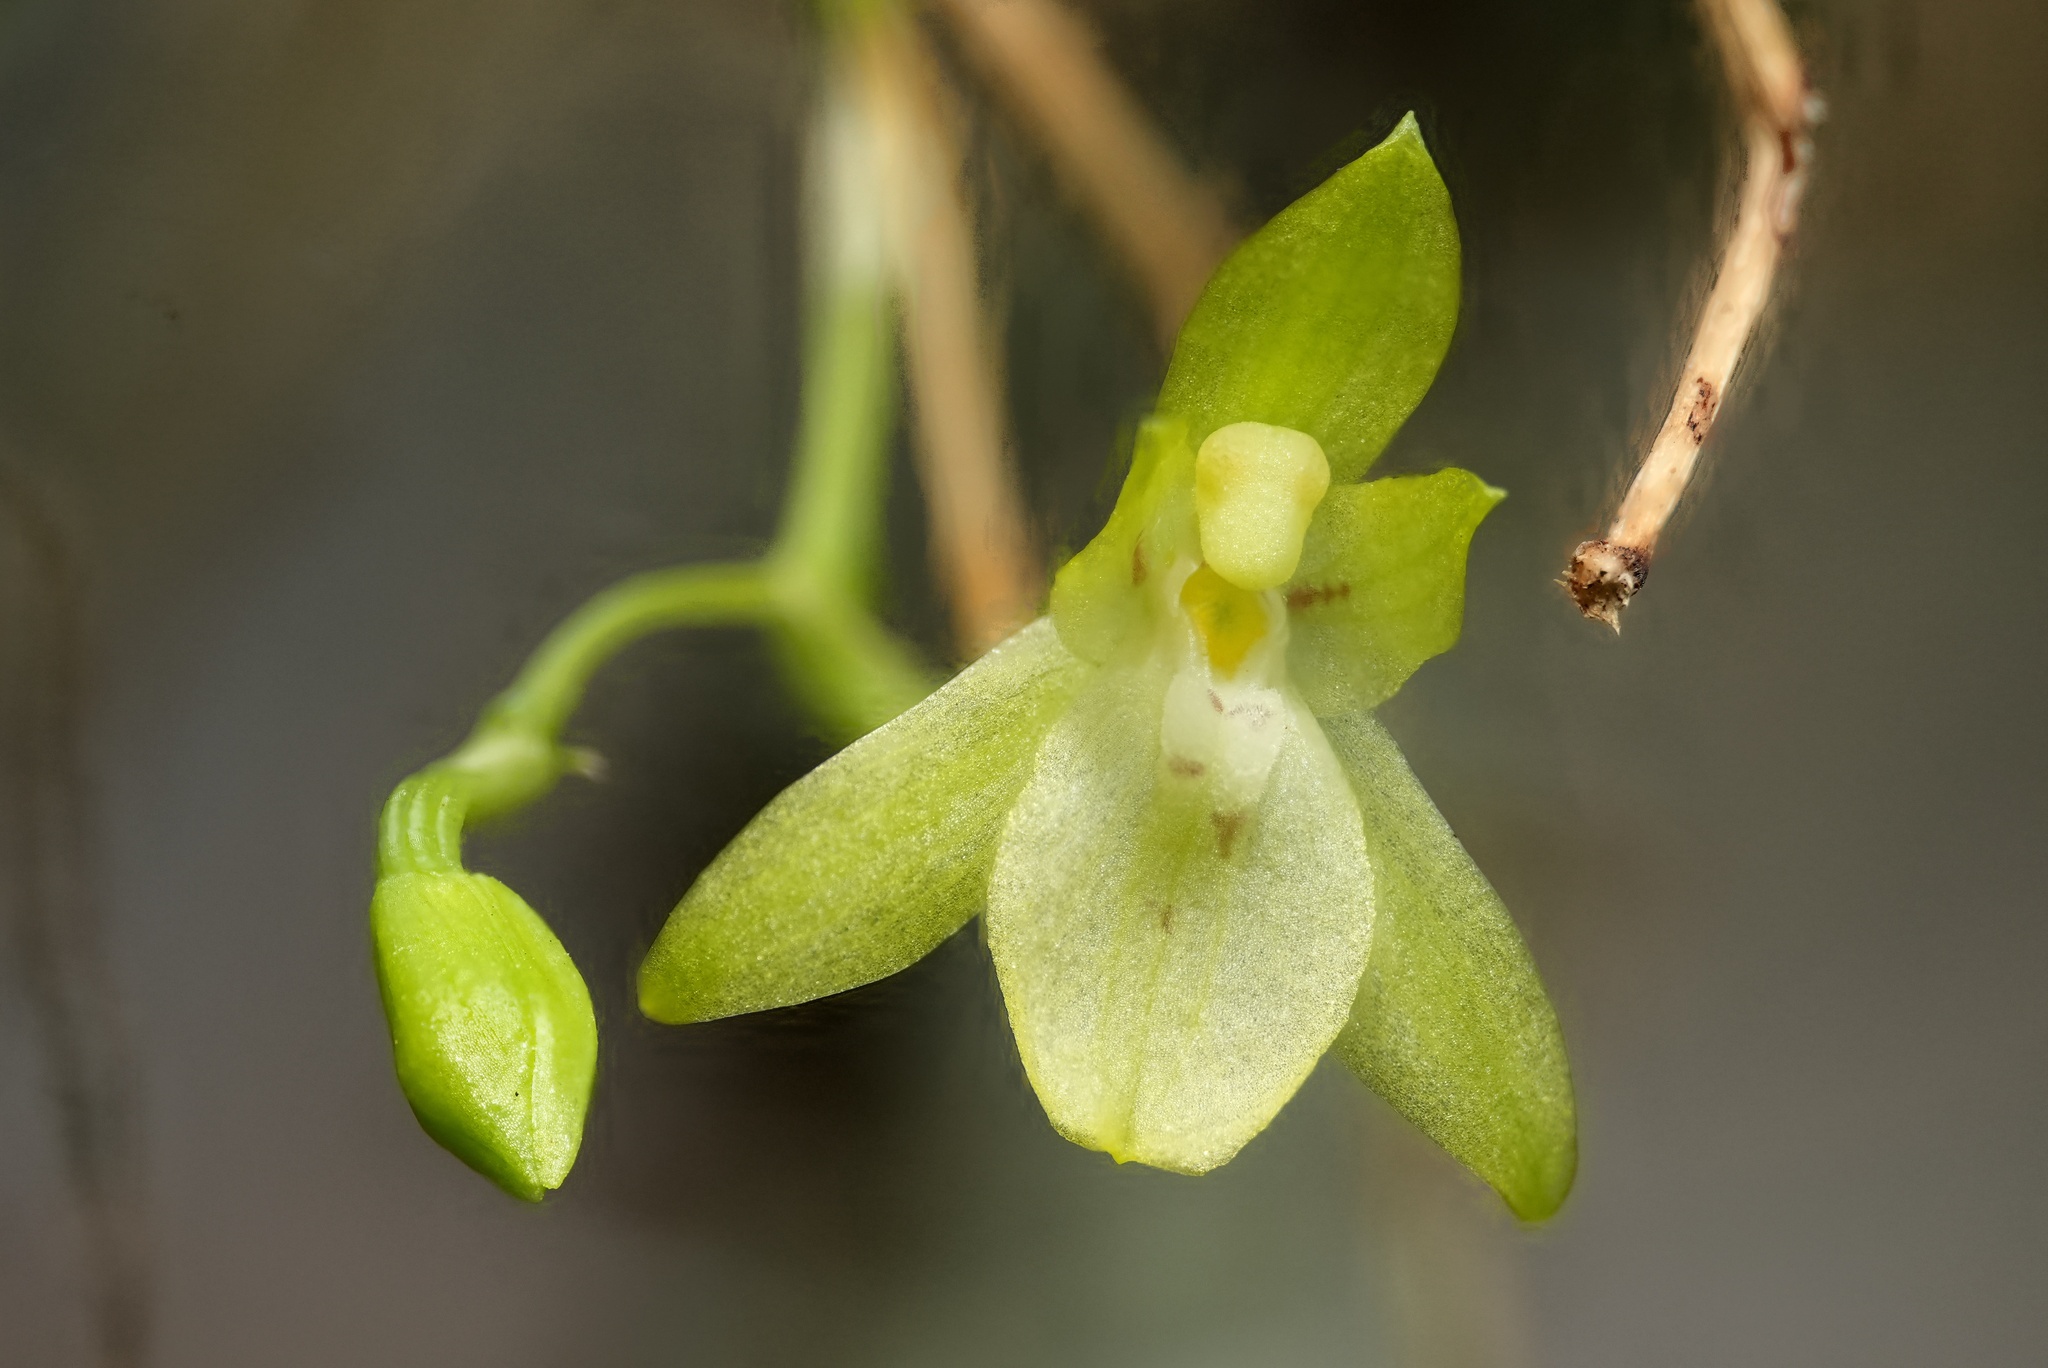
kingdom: Plantae
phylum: Tracheophyta
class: Liliopsida
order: Asparagales
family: Orchidaceae
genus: Leochilus
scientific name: Leochilus scriptus
